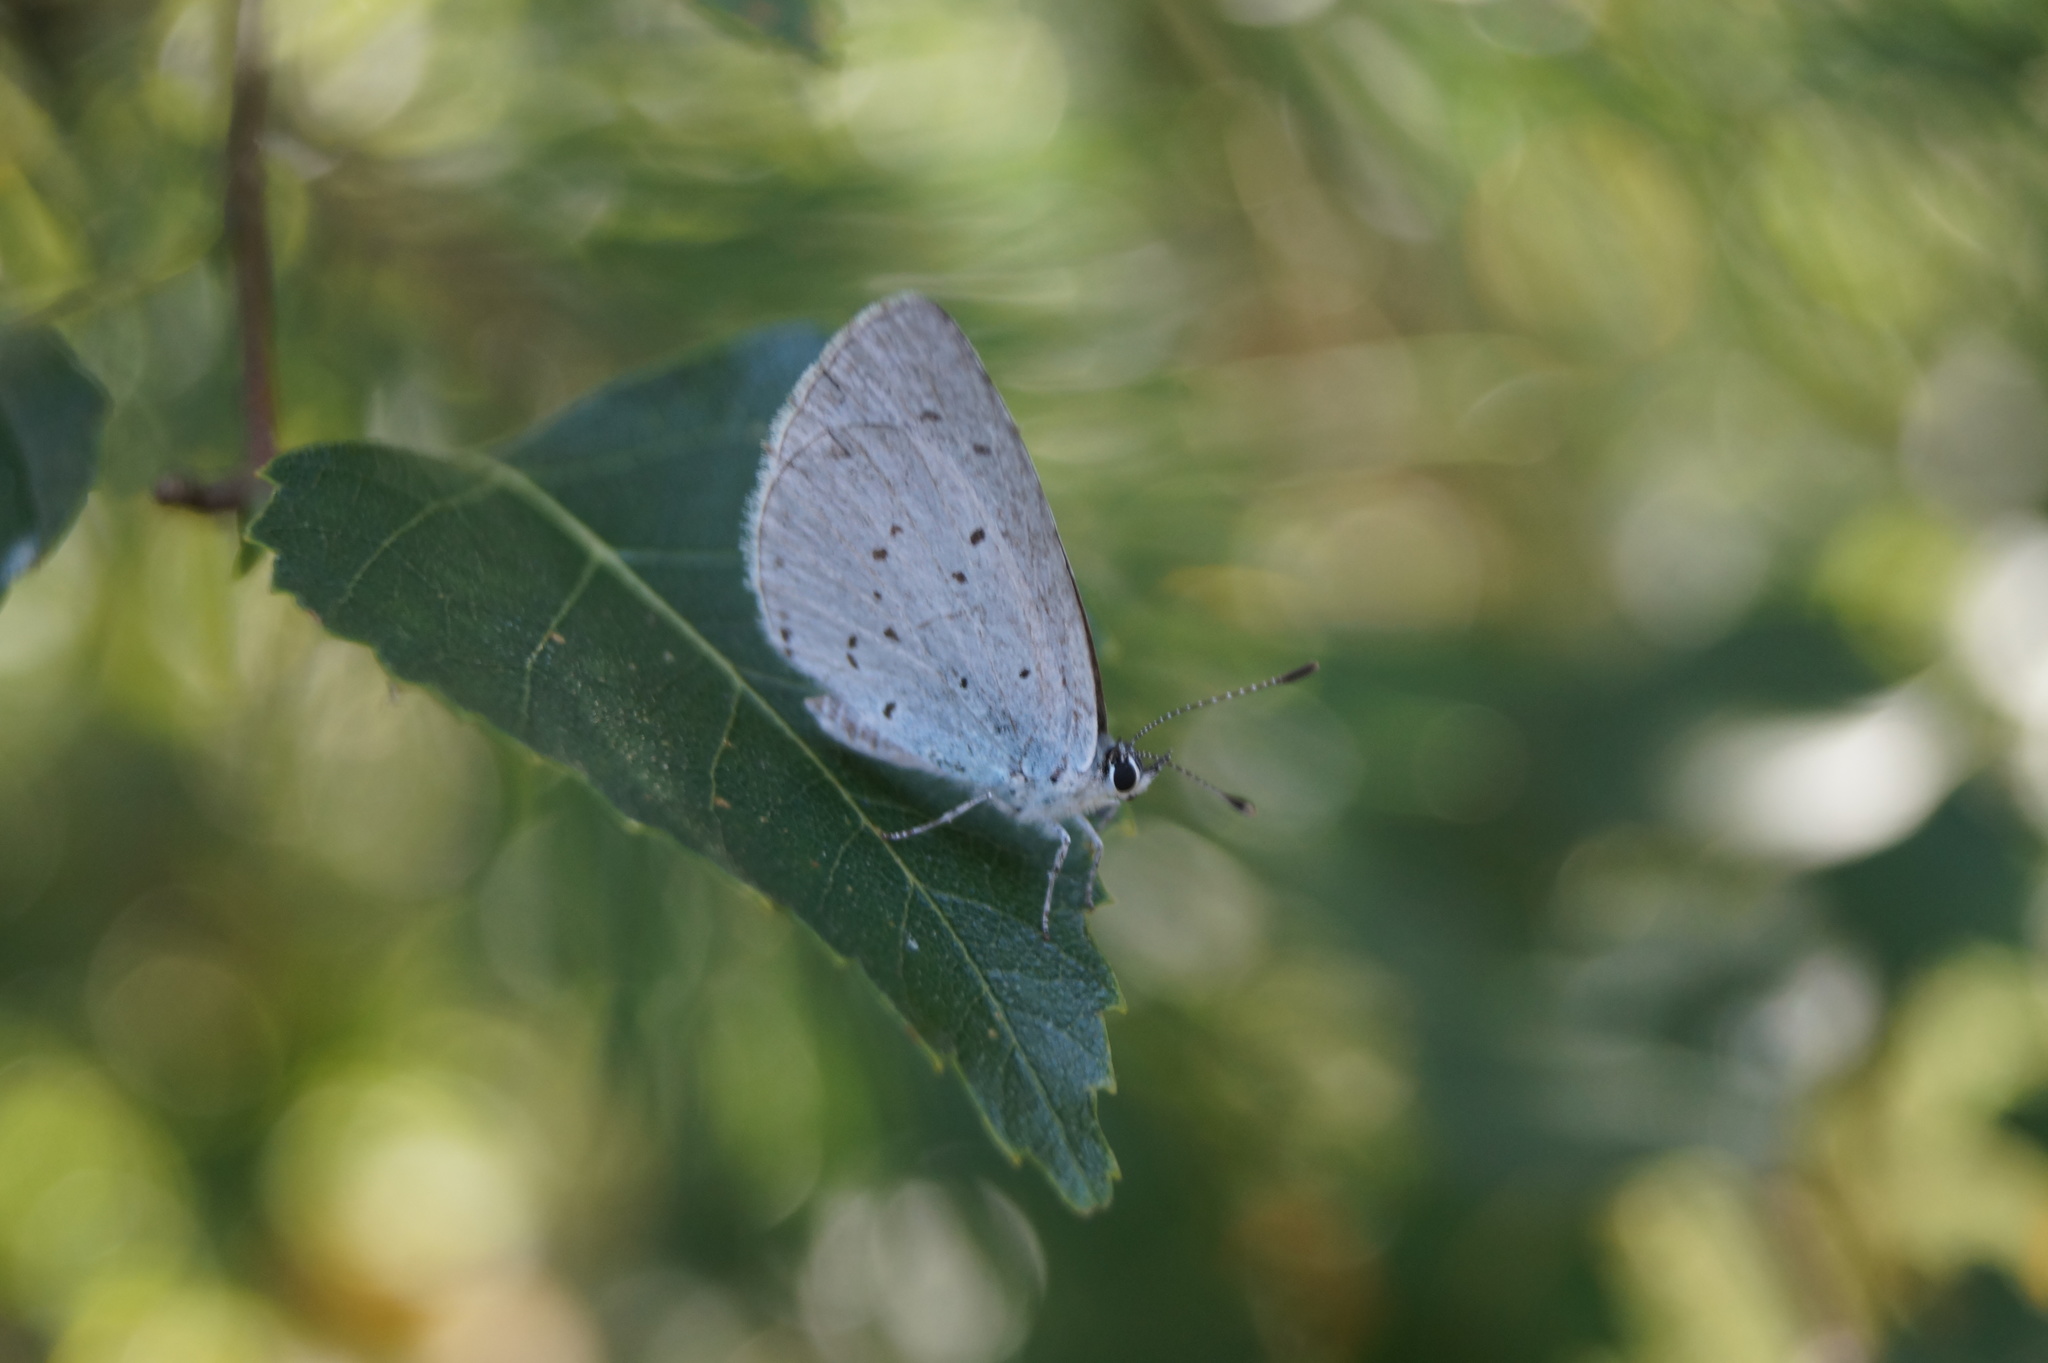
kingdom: Animalia
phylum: Arthropoda
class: Insecta
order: Lepidoptera
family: Lycaenidae
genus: Celastrina
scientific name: Celastrina argiolus
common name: Holly blue
